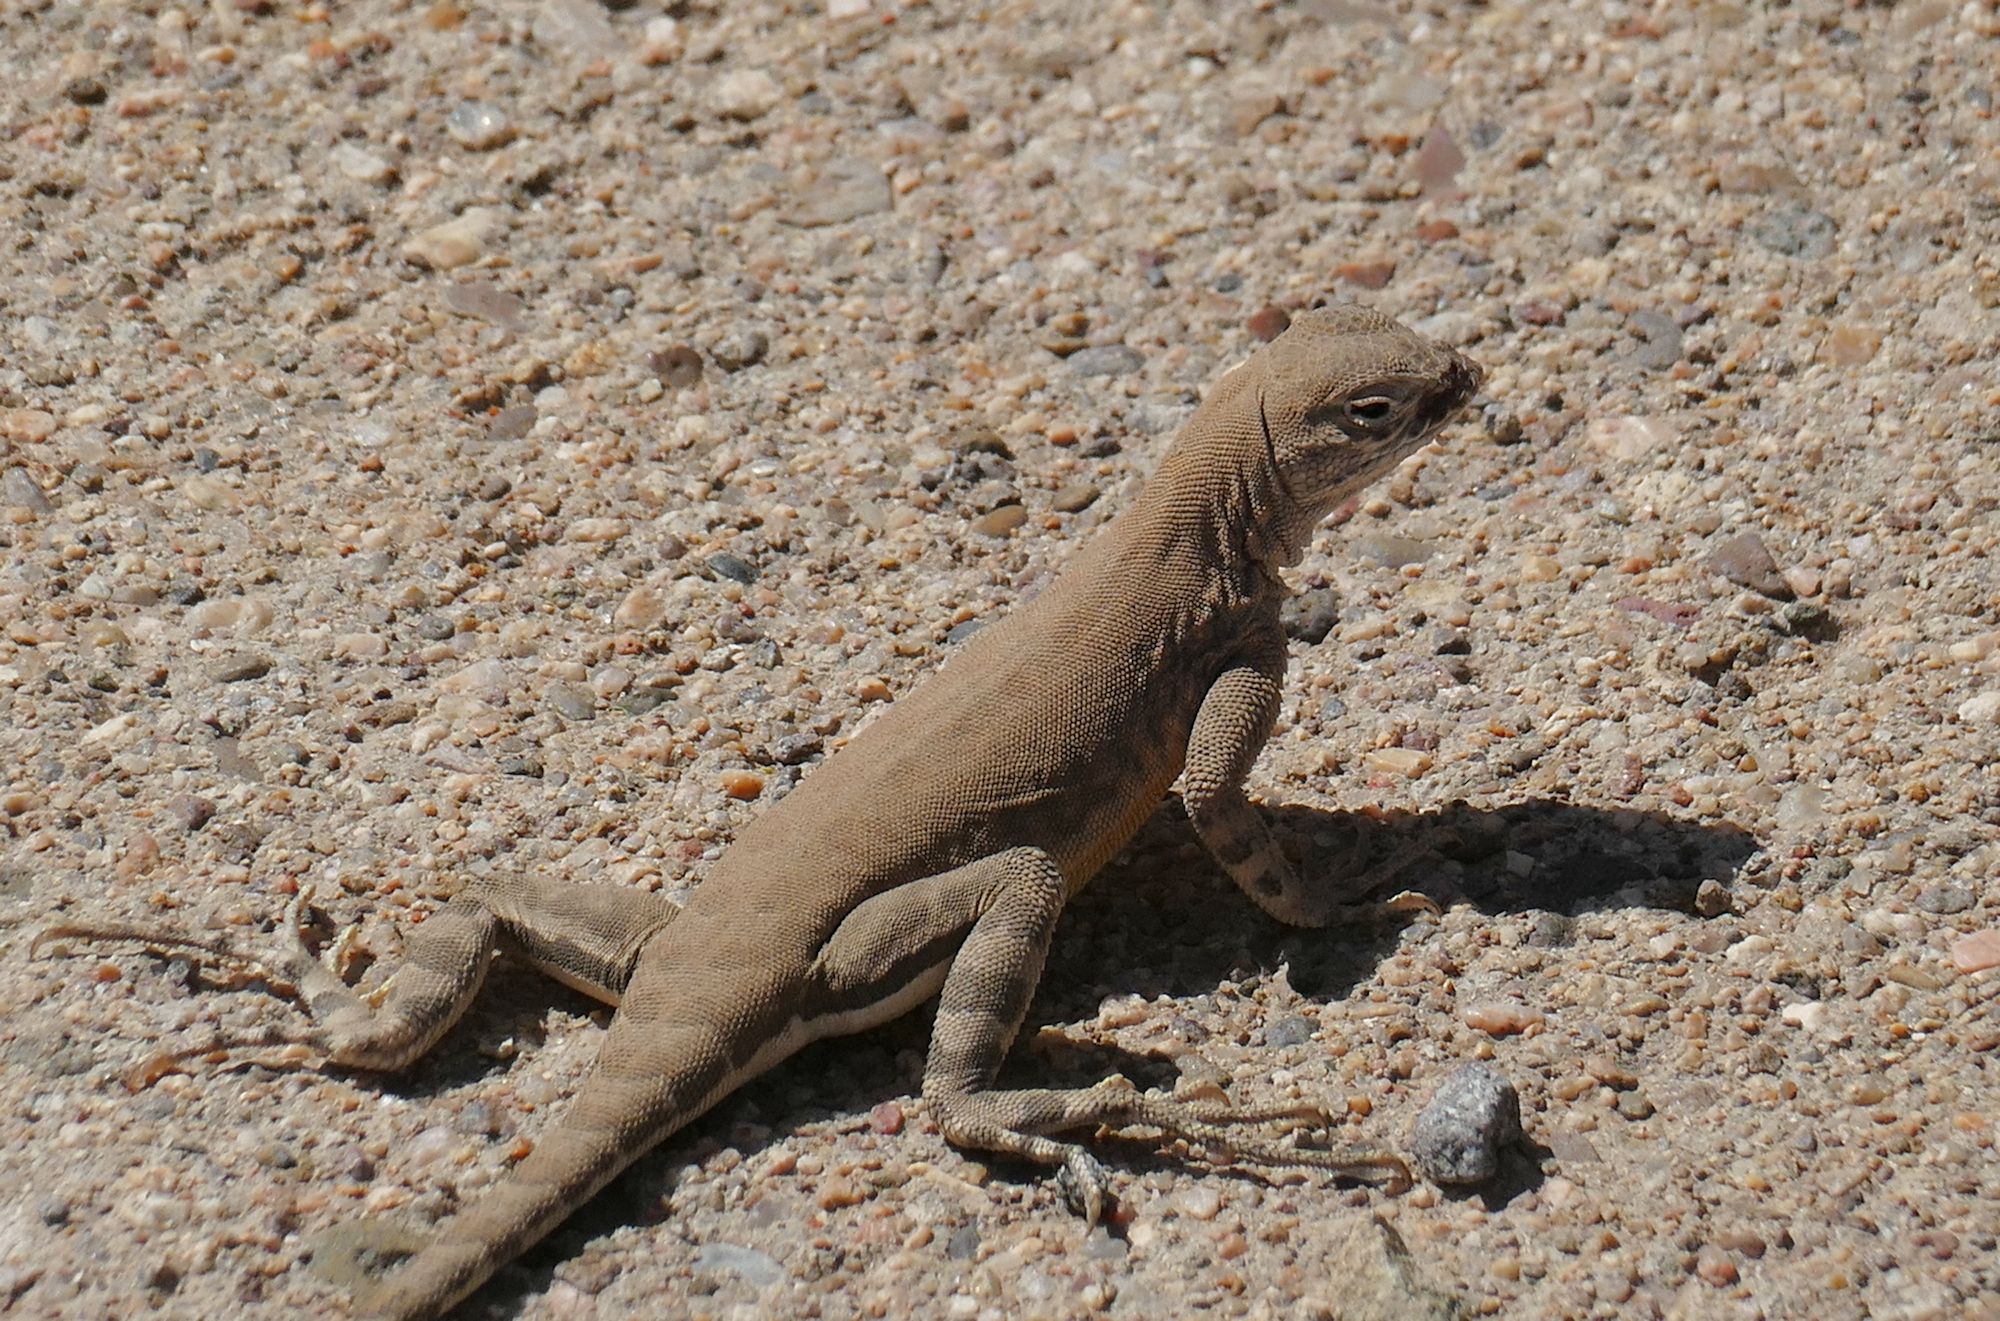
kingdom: Animalia
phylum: Chordata
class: Squamata
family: Phrynosomatidae
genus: Cophosaurus
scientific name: Cophosaurus texanus
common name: Greater earless lizard
